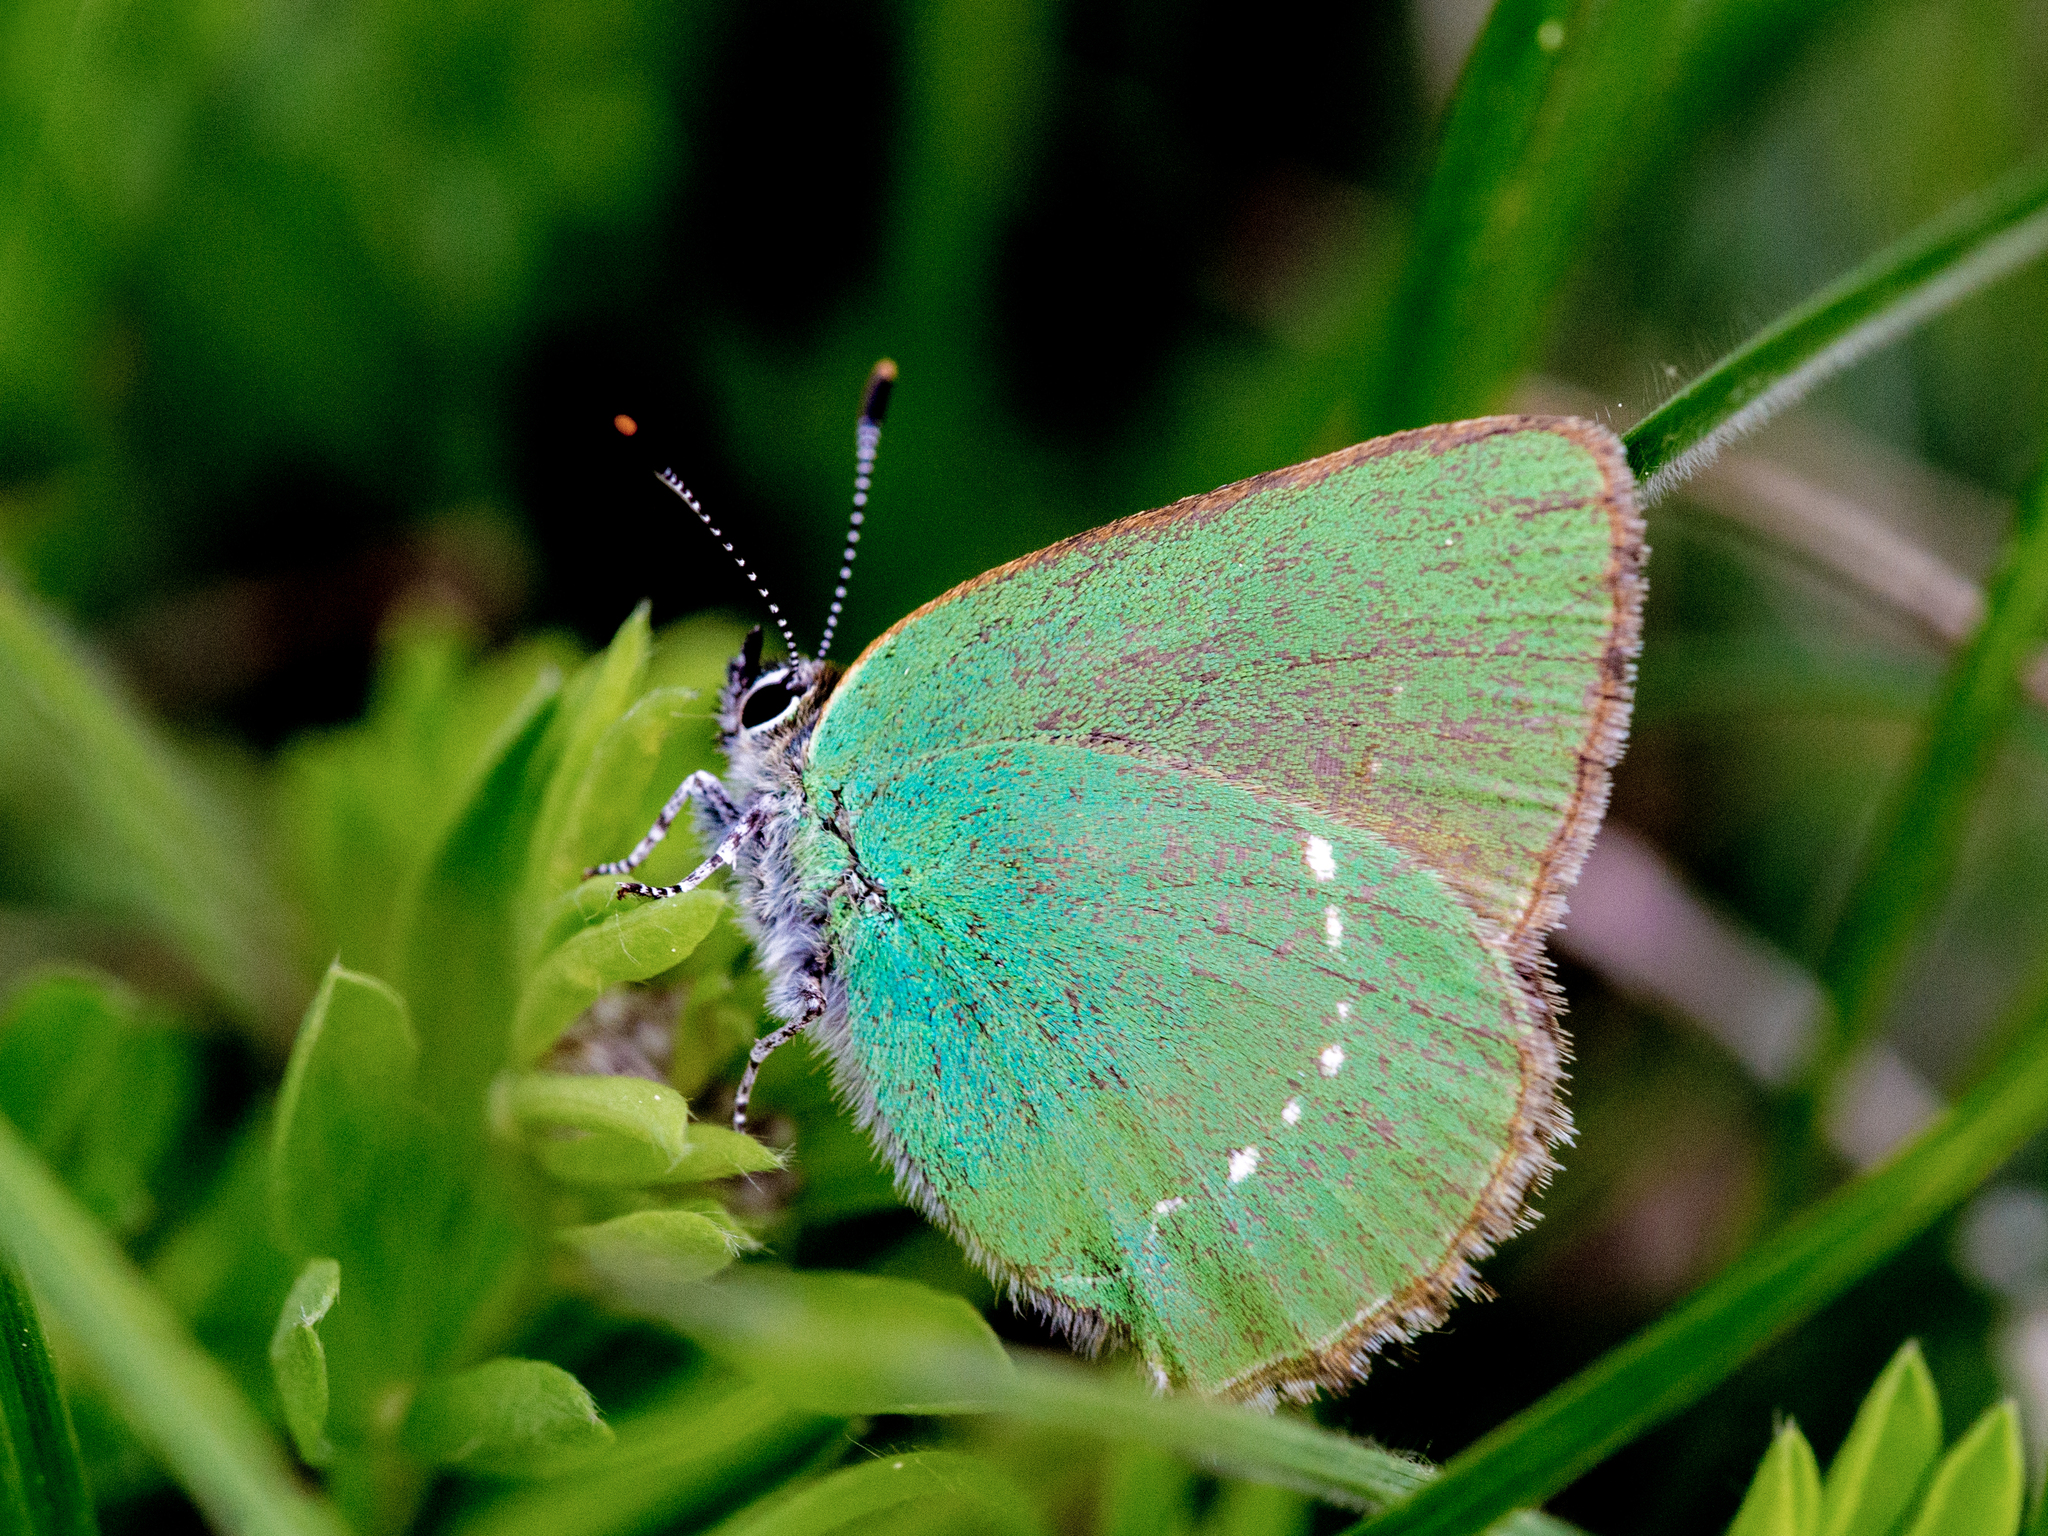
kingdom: Animalia
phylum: Arthropoda
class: Insecta
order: Lepidoptera
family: Lycaenidae
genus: Callophrys
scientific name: Callophrys rubi
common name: Green hairstreak
